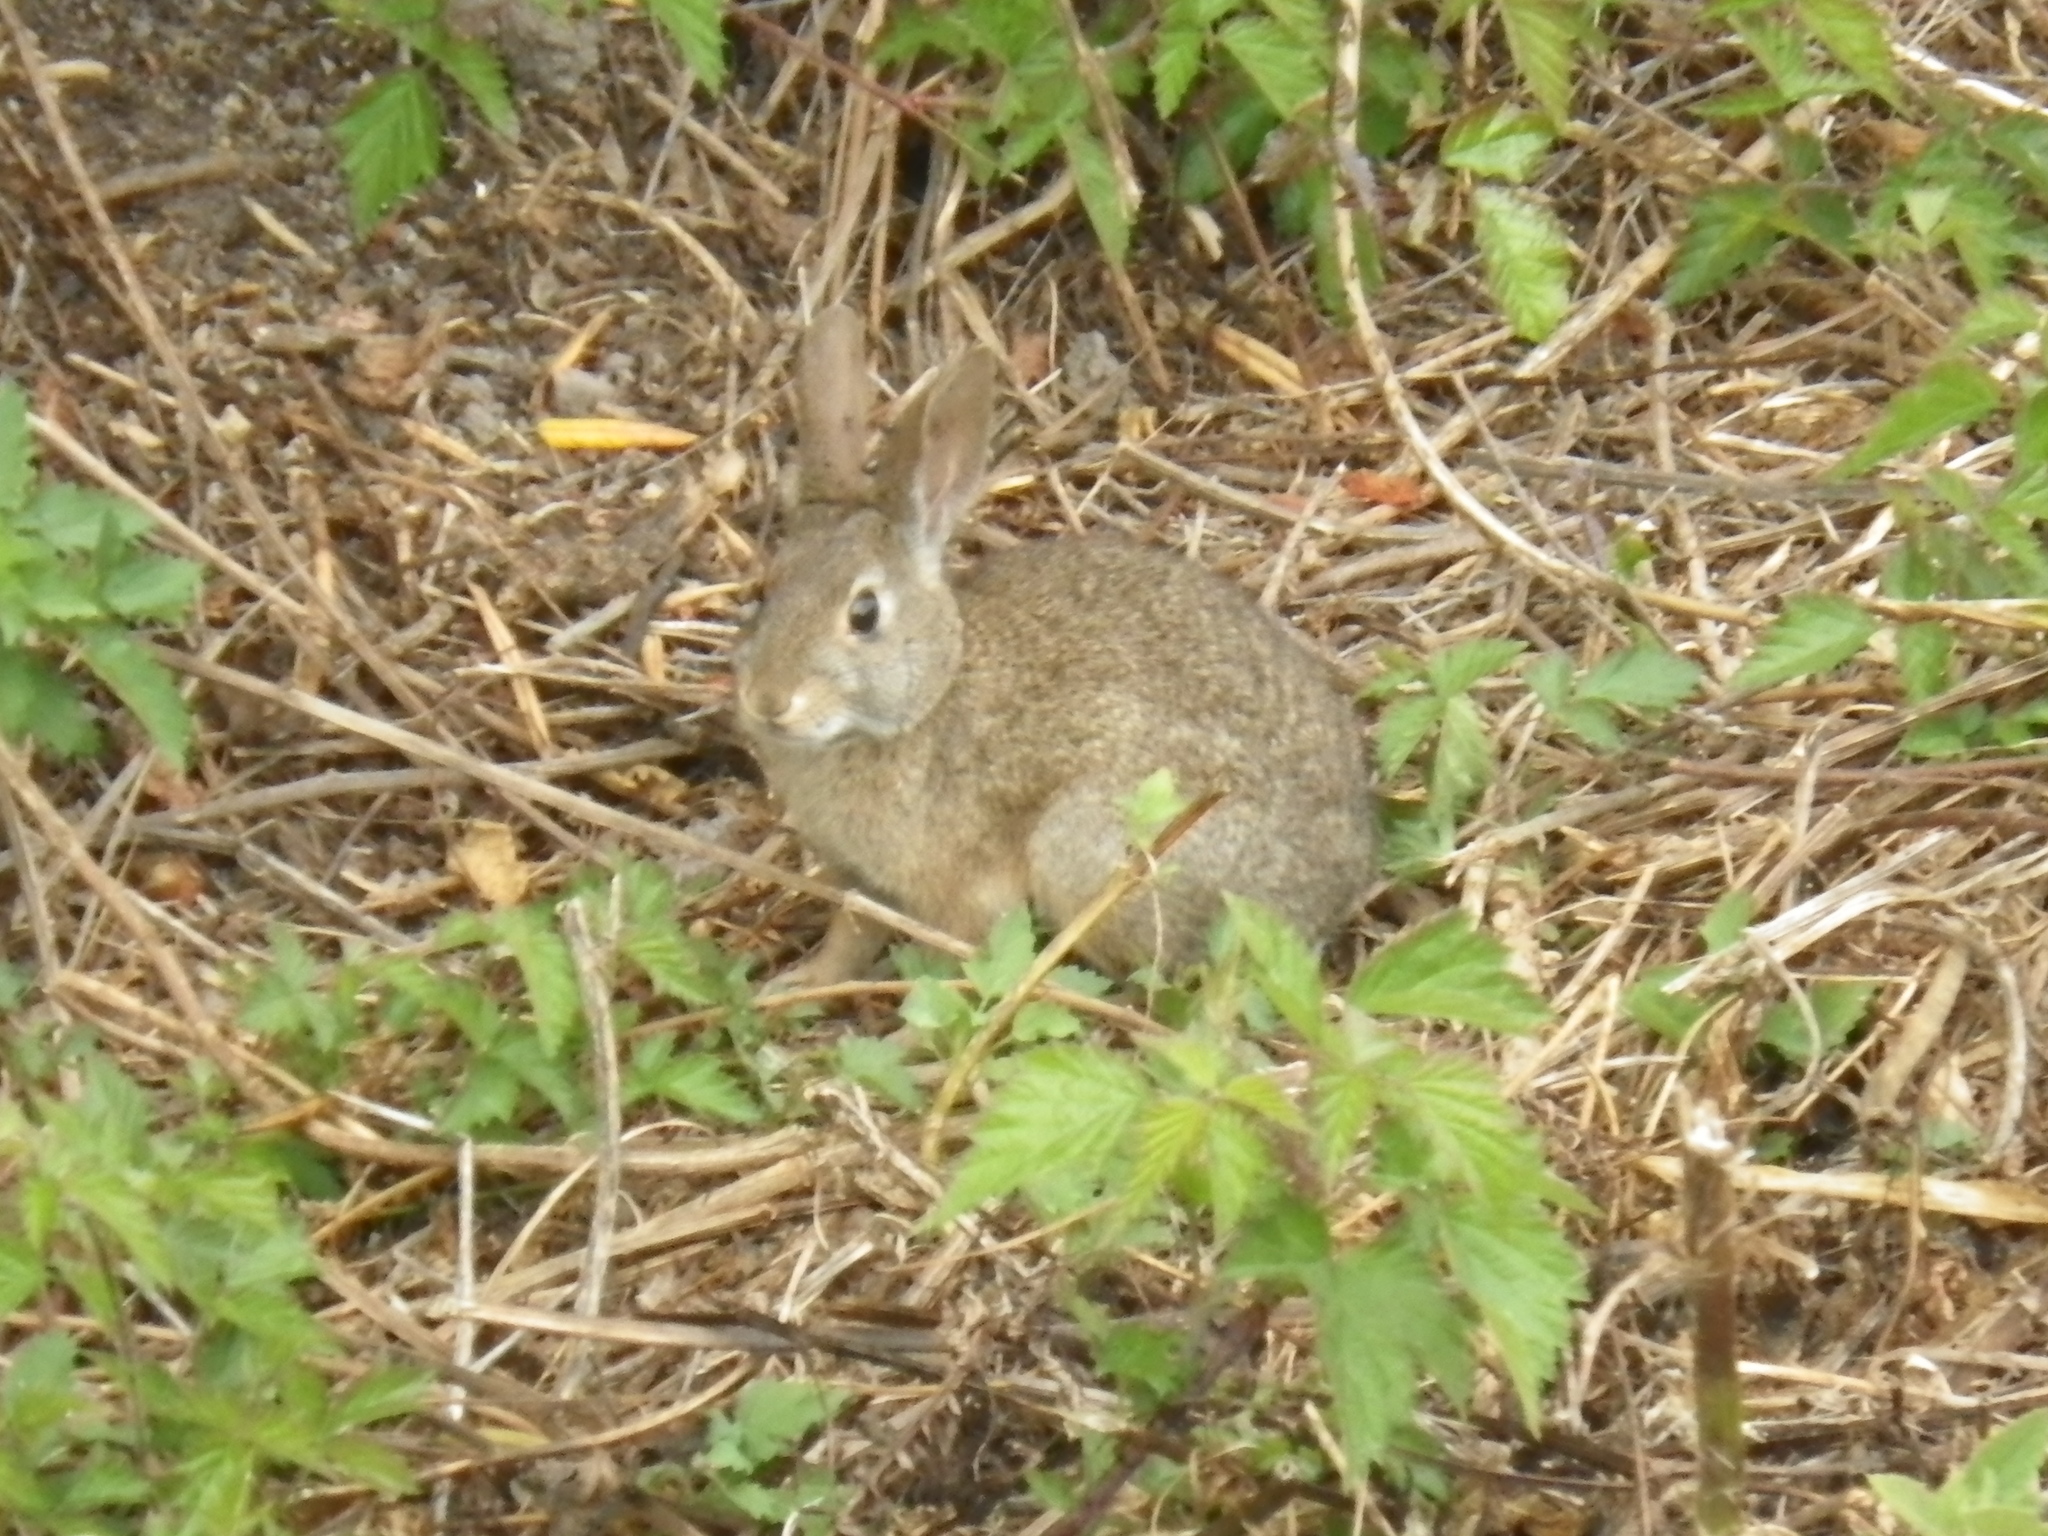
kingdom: Animalia
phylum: Chordata
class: Mammalia
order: Lagomorpha
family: Leporidae
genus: Sylvilagus
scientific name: Sylvilagus bachmani
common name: Brush rabbit
